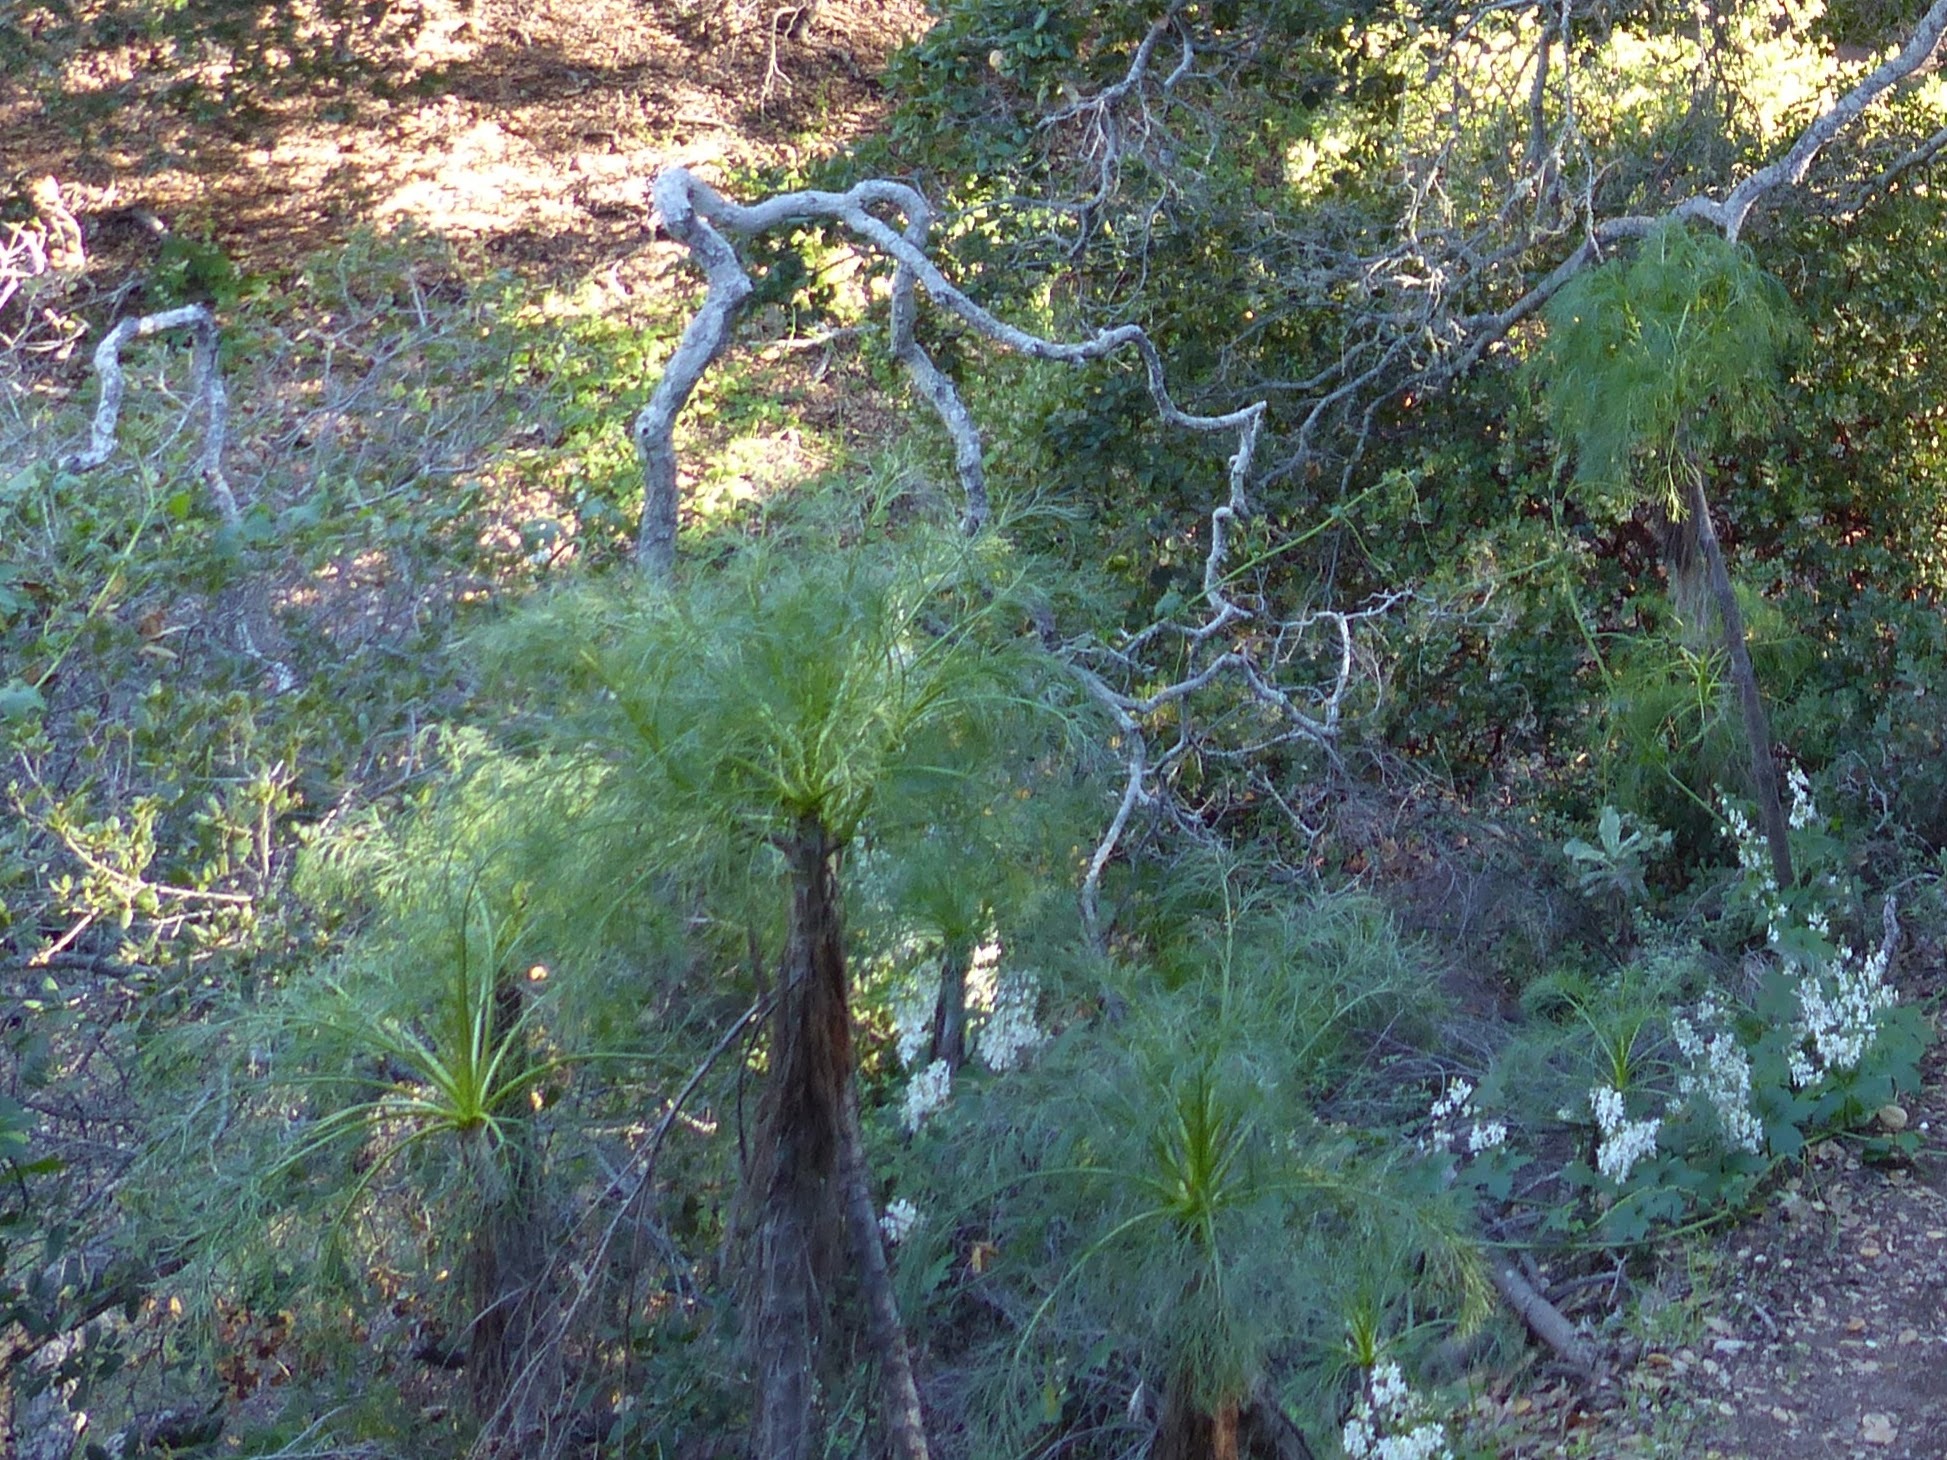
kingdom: Plantae
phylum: Tracheophyta
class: Magnoliopsida
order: Asterales
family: Asteraceae
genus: Coreopsis
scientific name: Coreopsis gigantea
